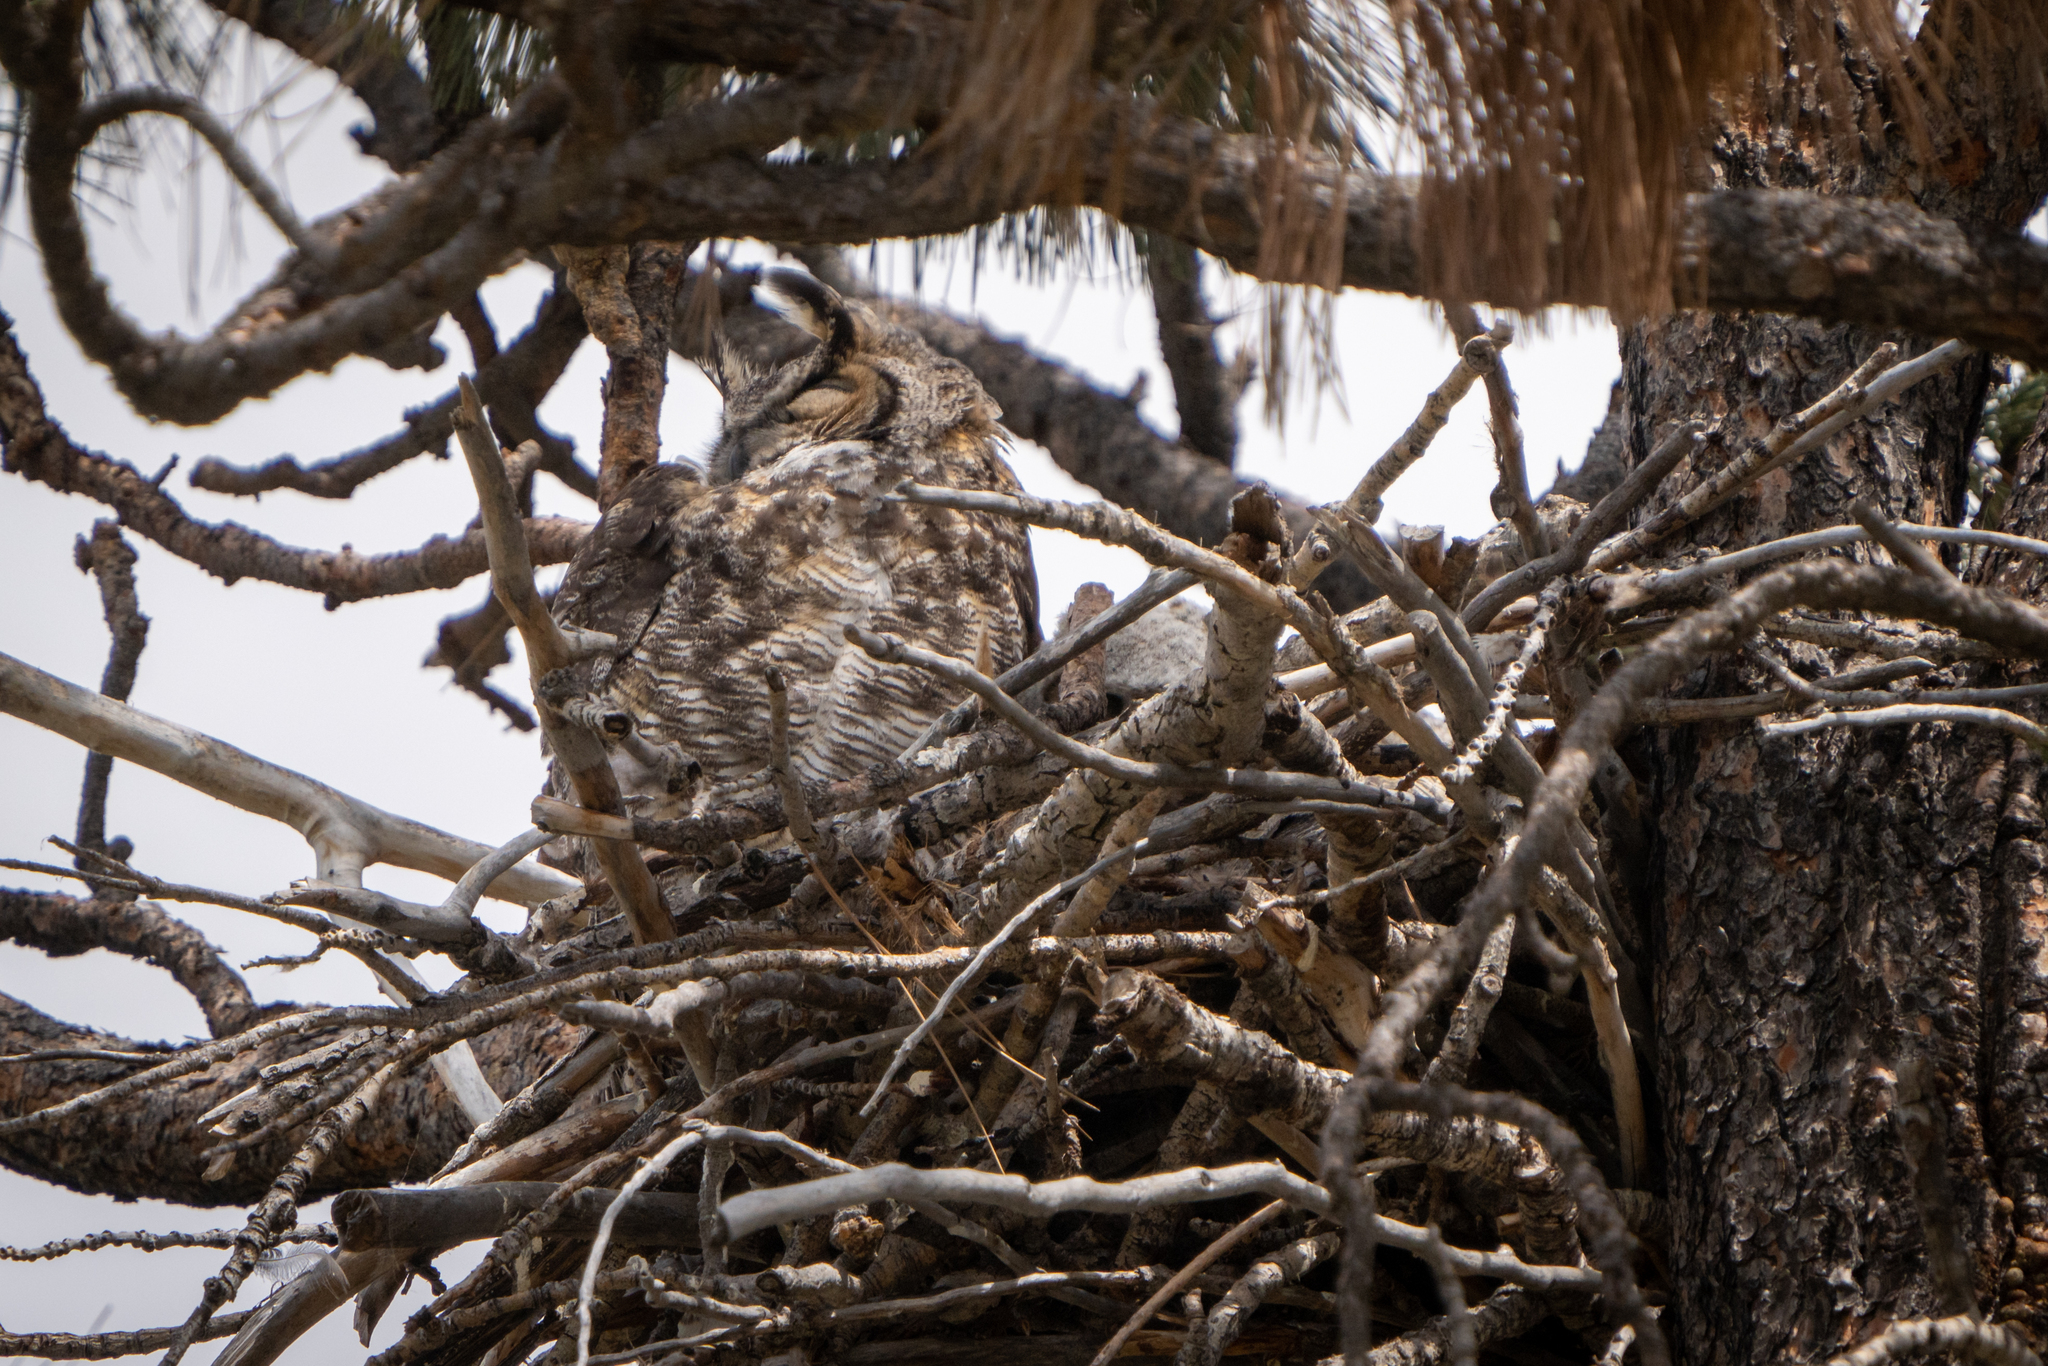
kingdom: Animalia
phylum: Chordata
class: Aves
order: Strigiformes
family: Strigidae
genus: Bubo
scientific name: Bubo virginianus
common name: Great horned owl
